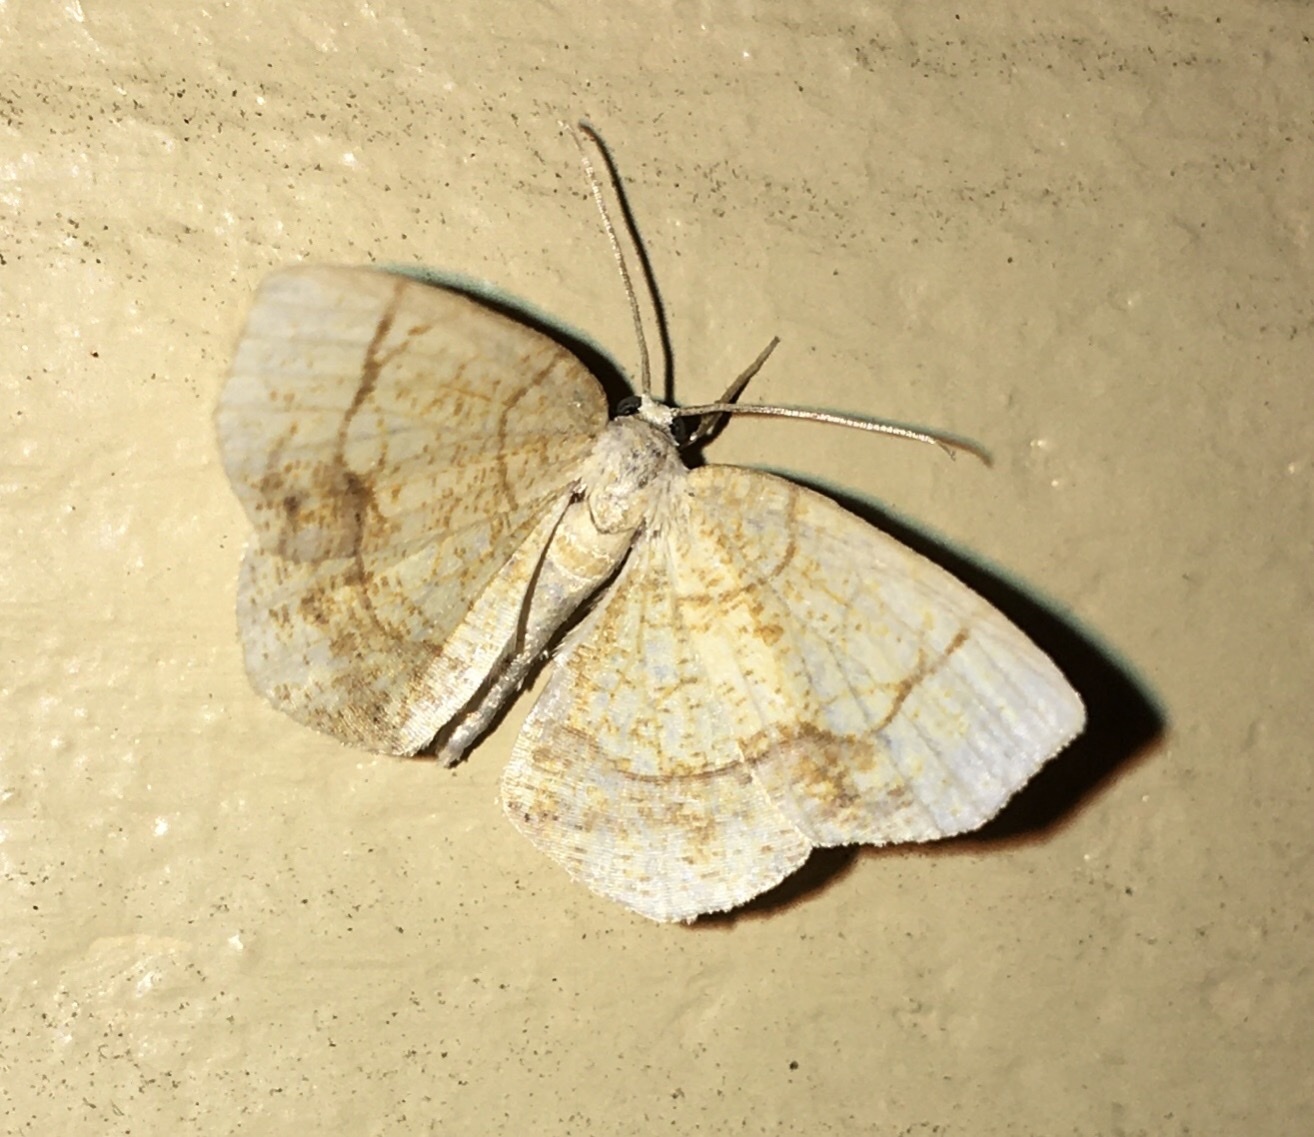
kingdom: Animalia
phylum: Arthropoda
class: Insecta
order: Lepidoptera
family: Geometridae
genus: Nematocampa
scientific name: Nematocampa resistaria
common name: Horned spanworm moth
